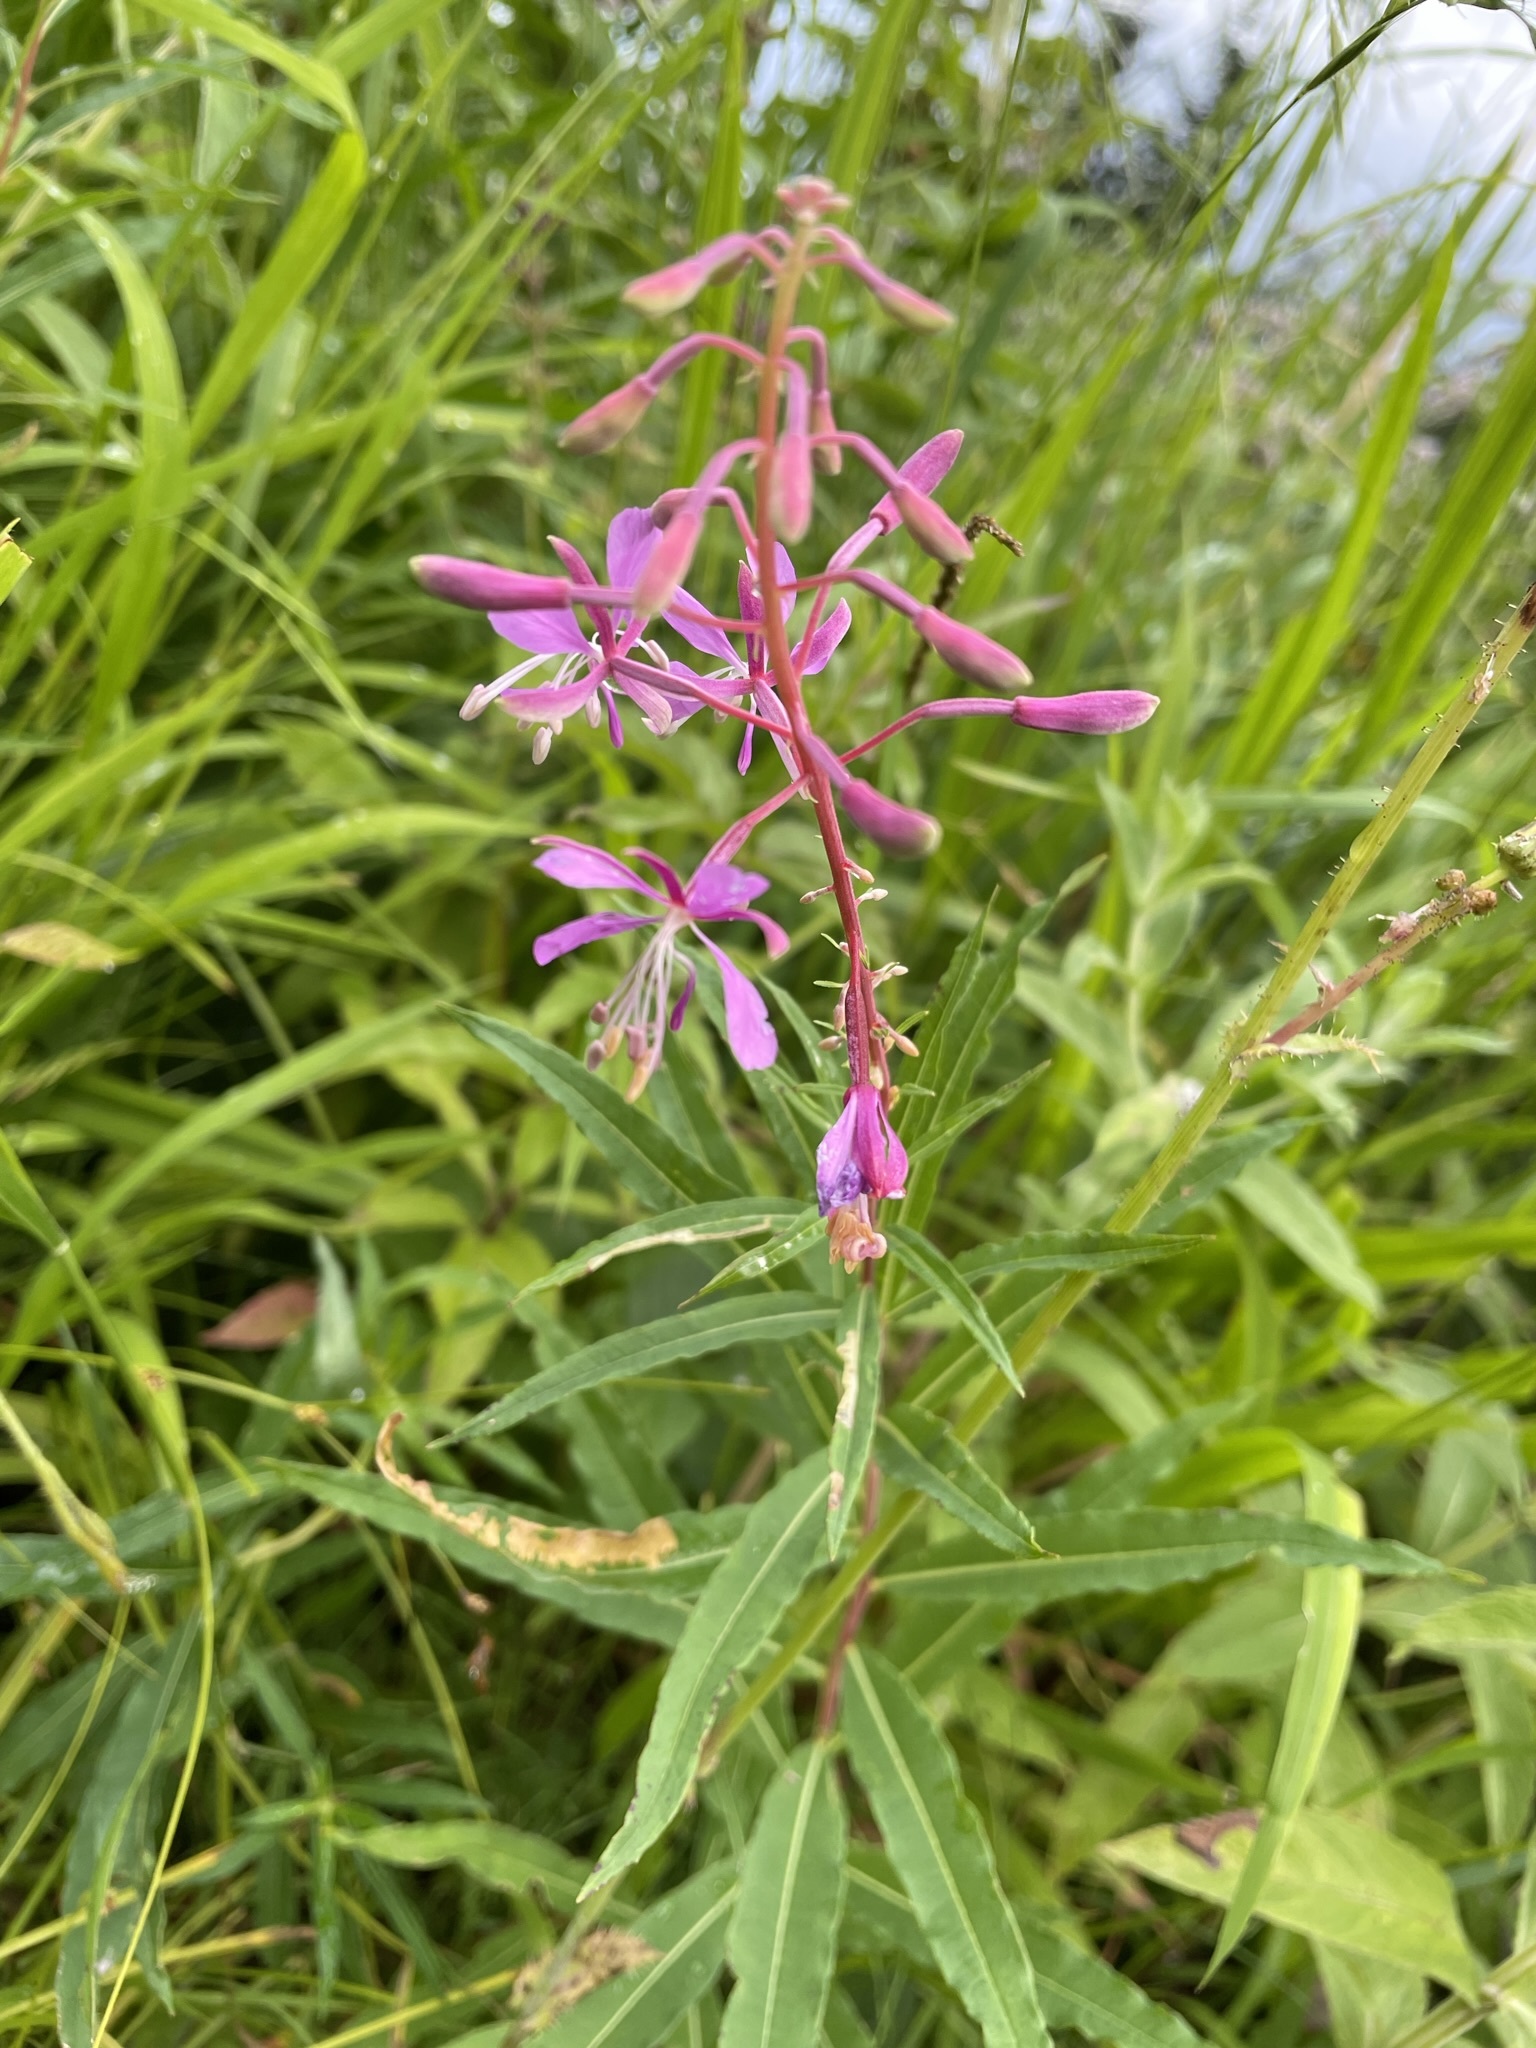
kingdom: Plantae
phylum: Tracheophyta
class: Magnoliopsida
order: Myrtales
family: Onagraceae
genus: Chamaenerion
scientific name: Chamaenerion angustifolium
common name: Fireweed
